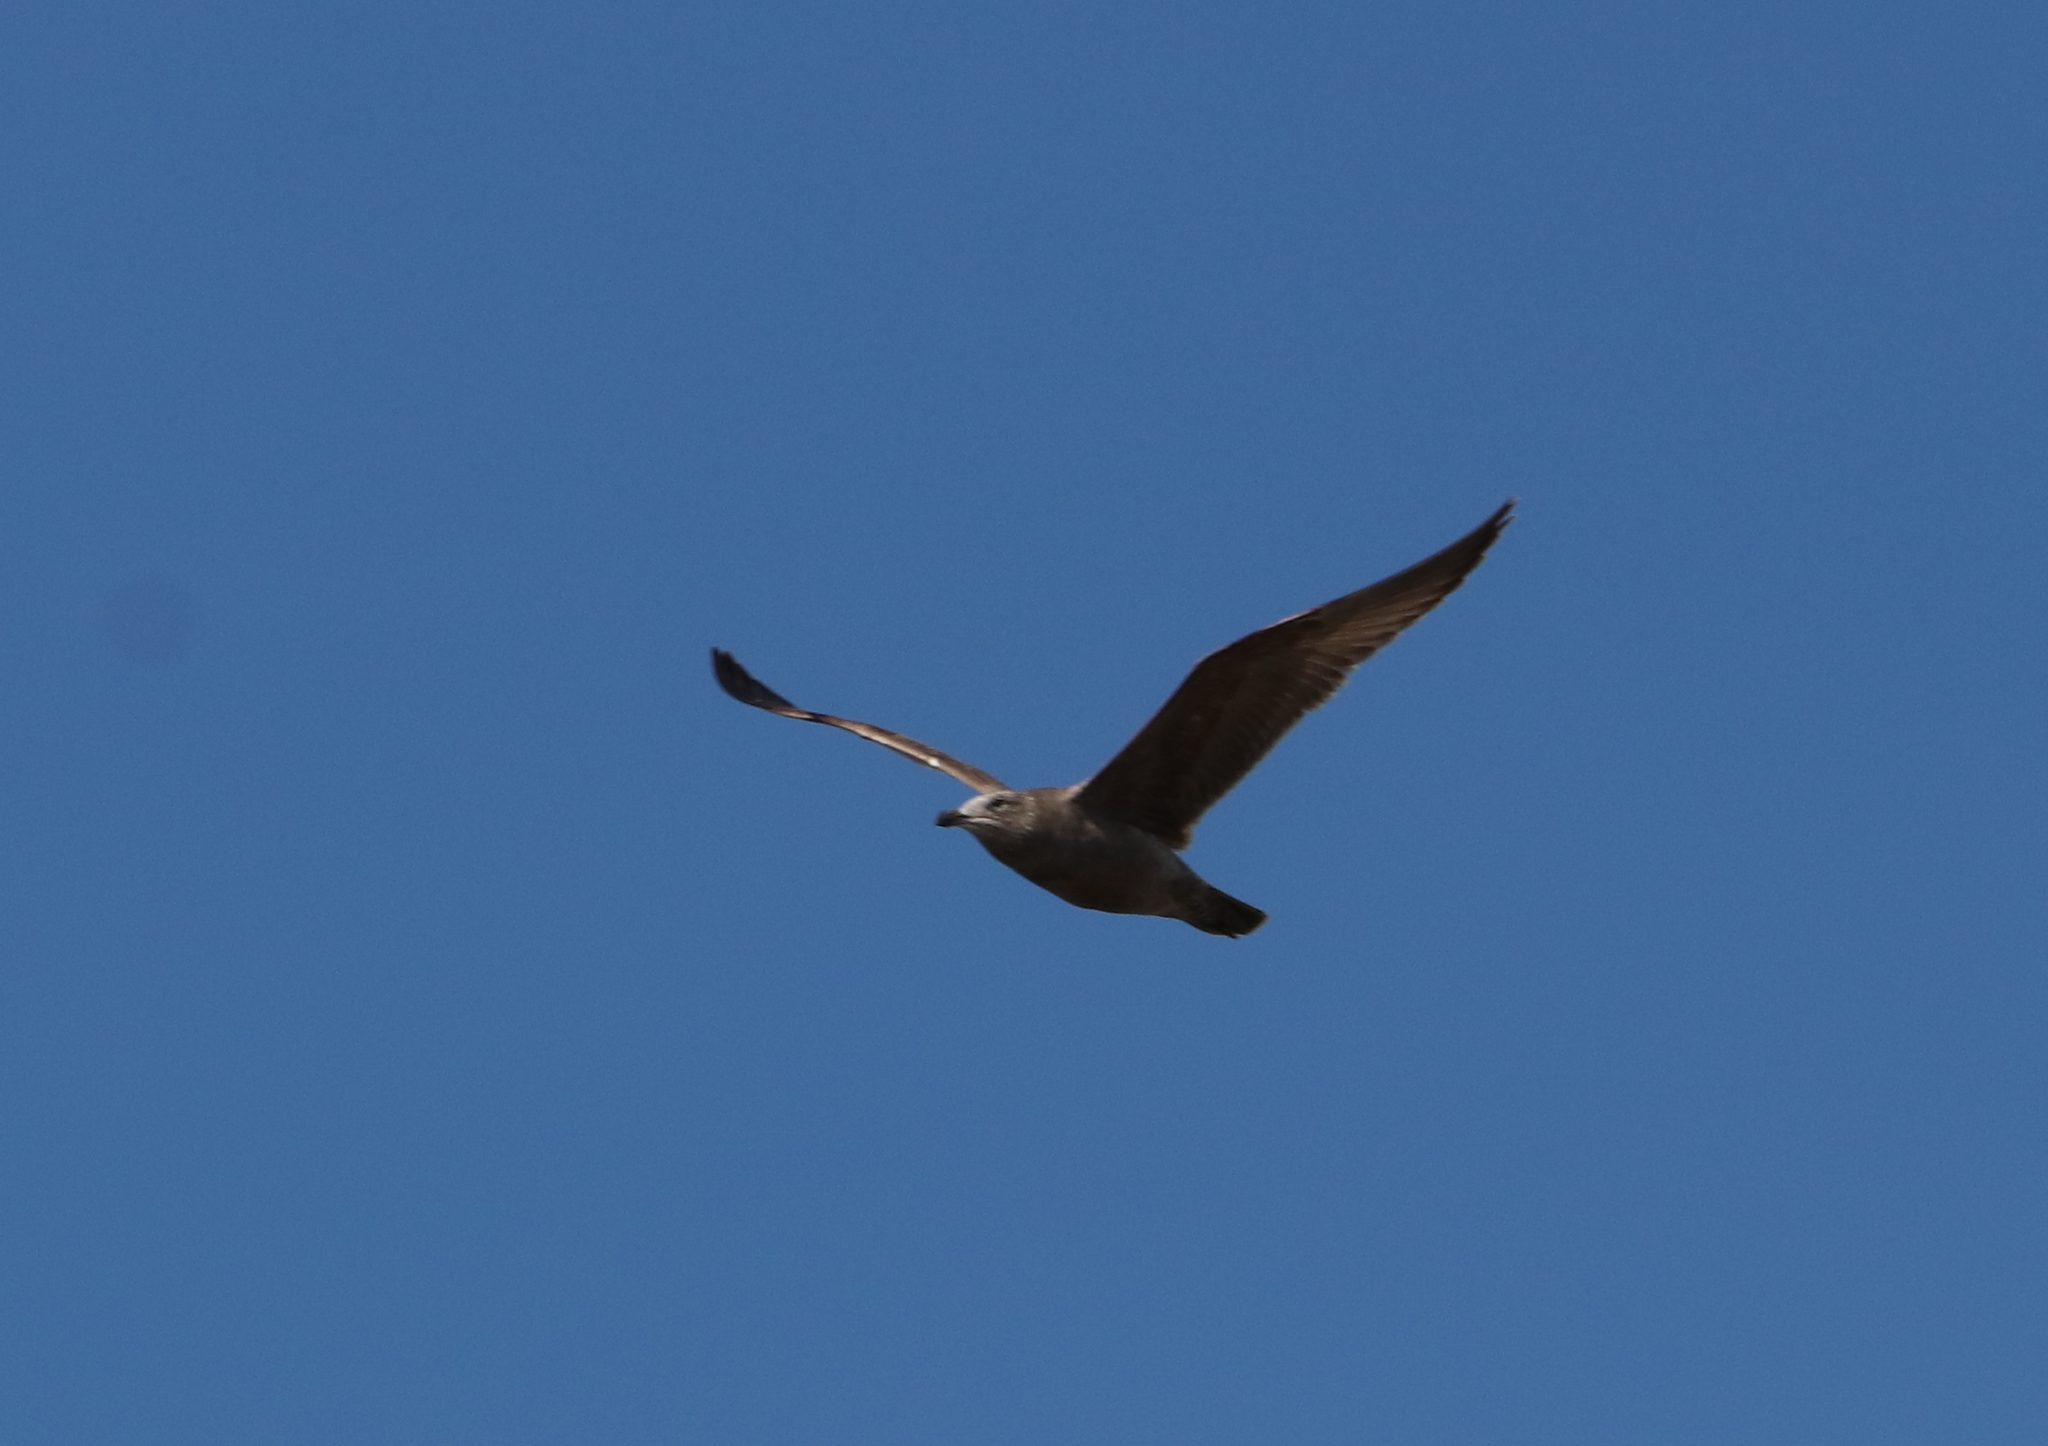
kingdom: Animalia
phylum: Chordata
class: Aves
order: Charadriiformes
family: Laridae
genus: Larus
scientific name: Larus argentatus
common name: Herring gull
